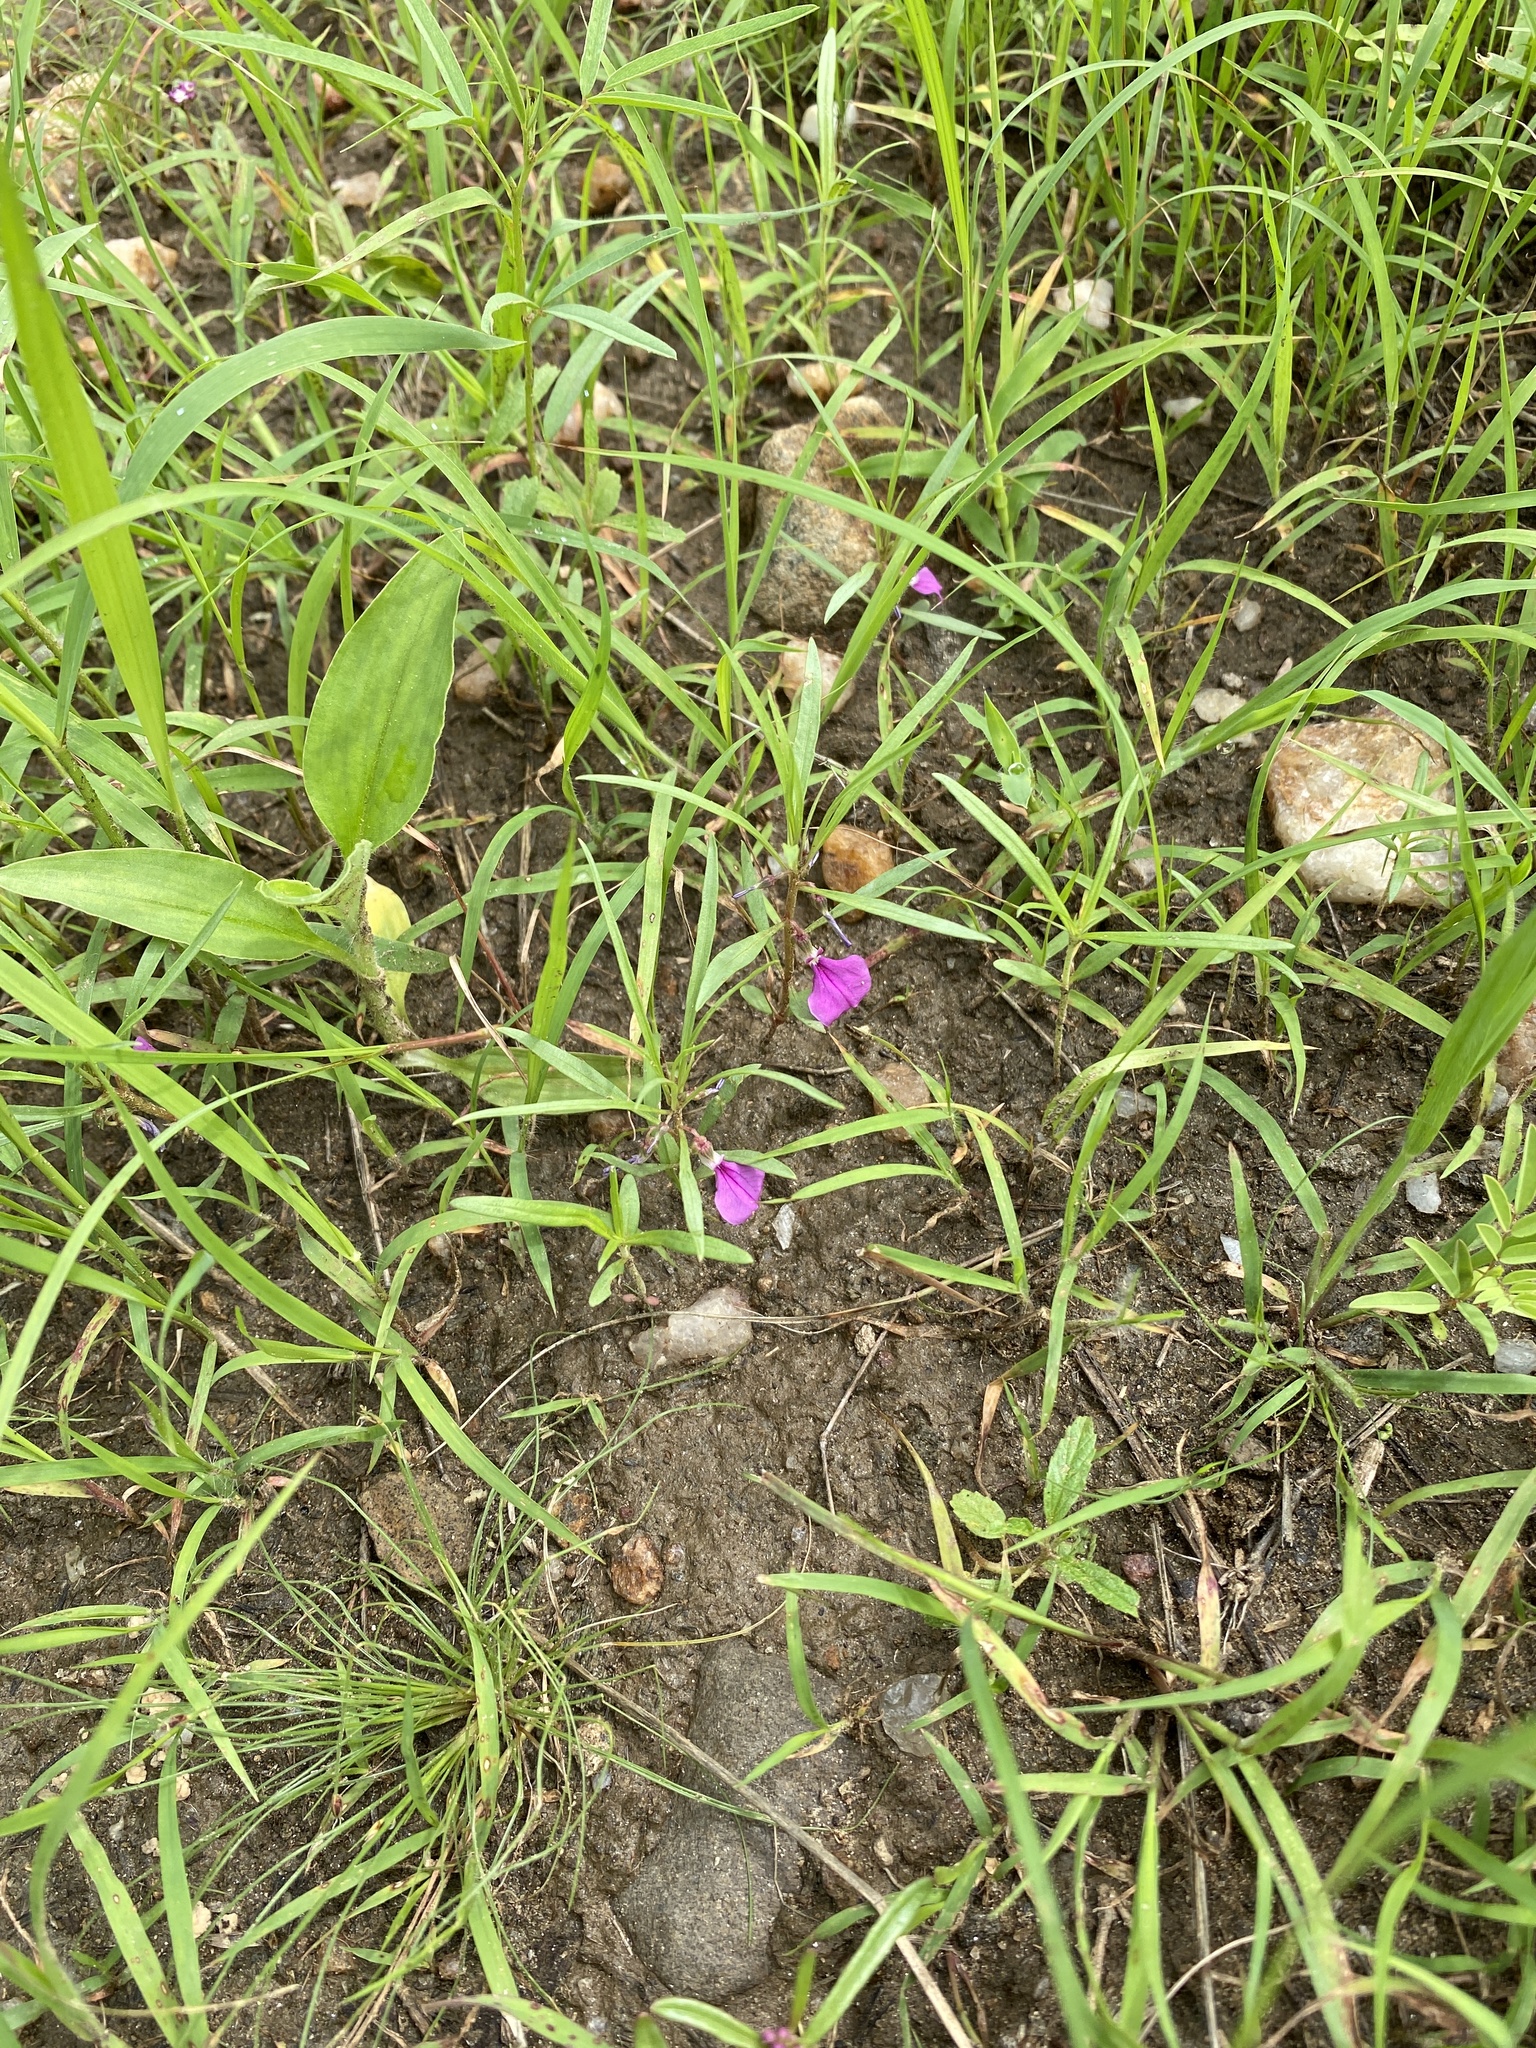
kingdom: Plantae
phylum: Tracheophyta
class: Magnoliopsida
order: Malpighiales
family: Violaceae
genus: Pigea
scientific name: Pigea densifolia
